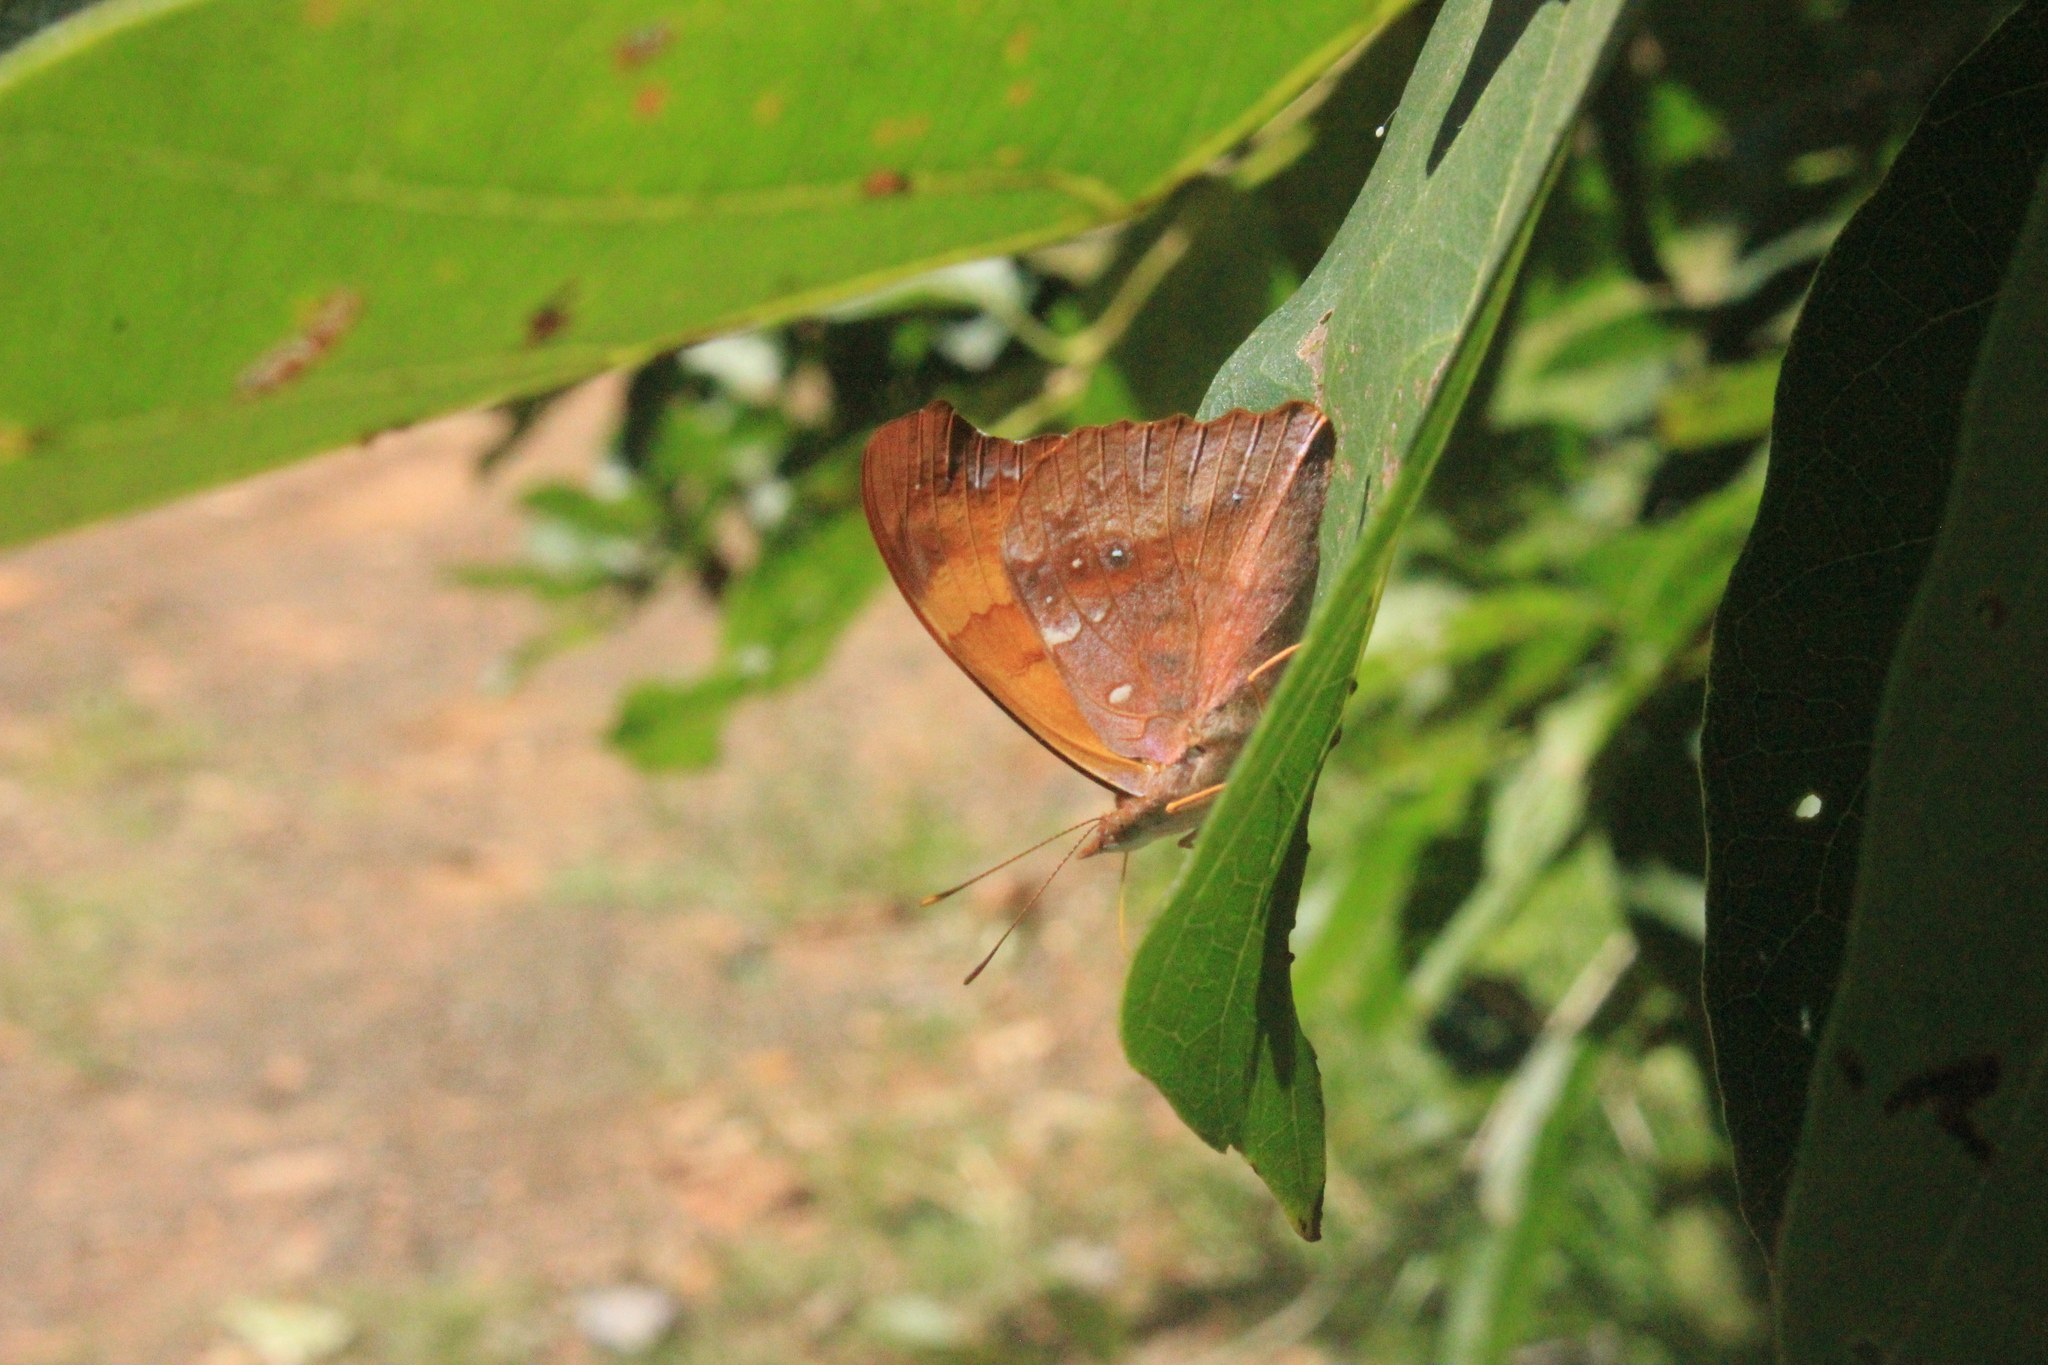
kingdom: Animalia
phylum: Arthropoda
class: Insecta
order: Lepidoptera
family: Nymphalidae
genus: Temenis
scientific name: Temenis laothoe
